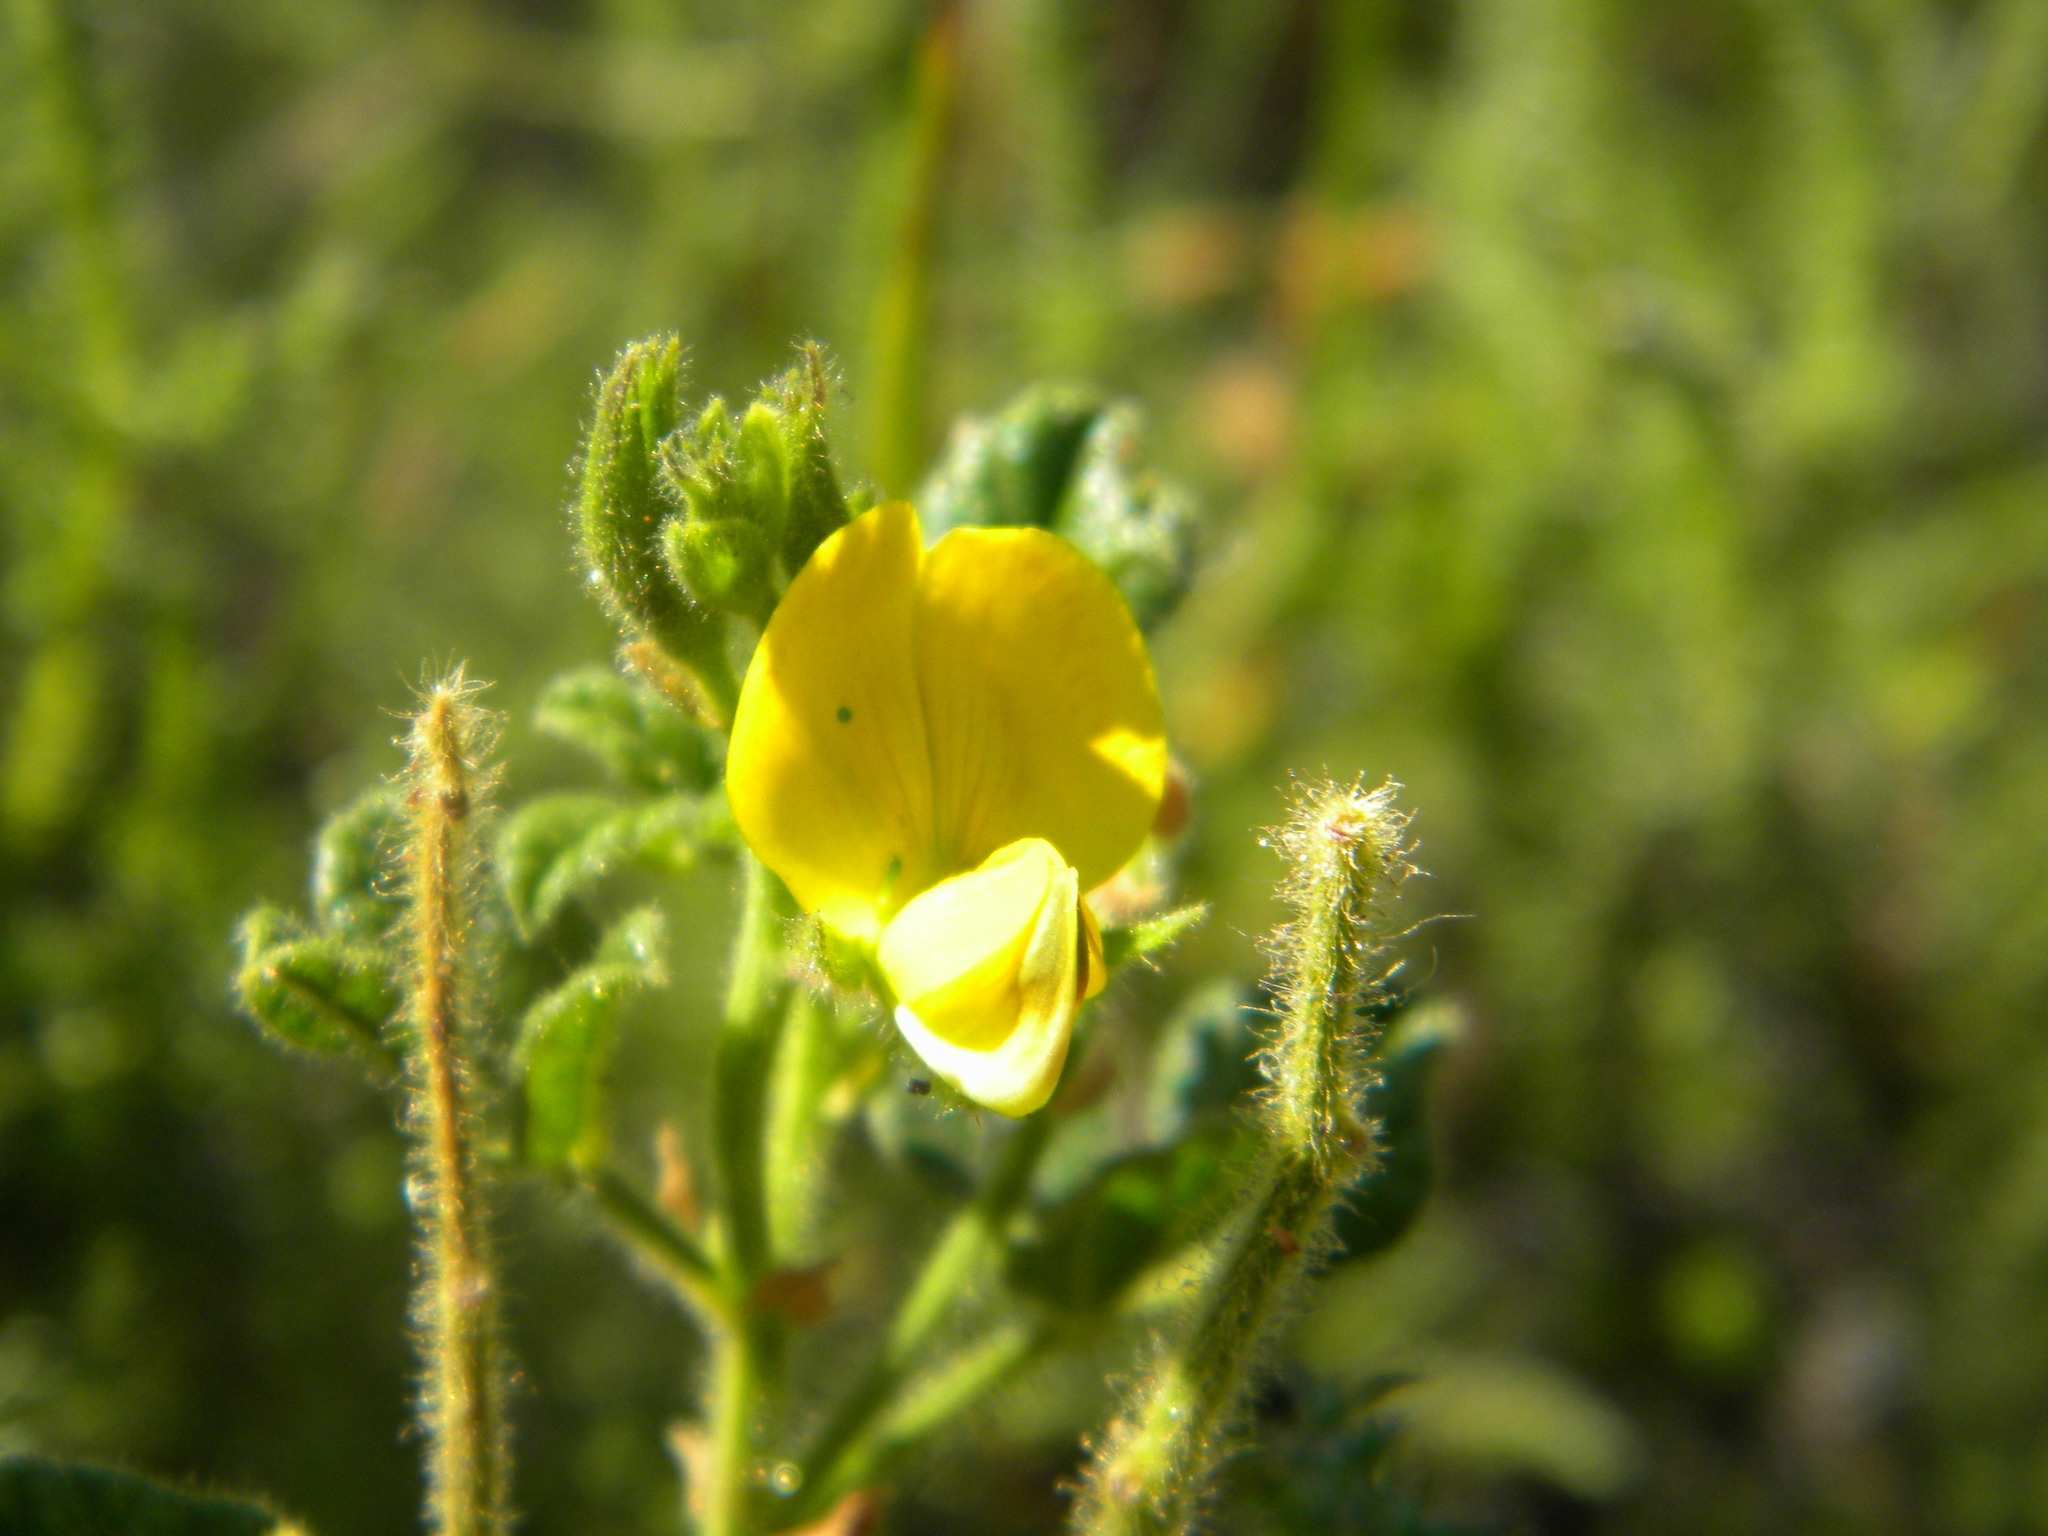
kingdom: Plantae
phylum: Tracheophyta
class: Magnoliopsida
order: Fabales
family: Fabaceae
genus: Bolusafra
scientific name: Bolusafra bituminosa
